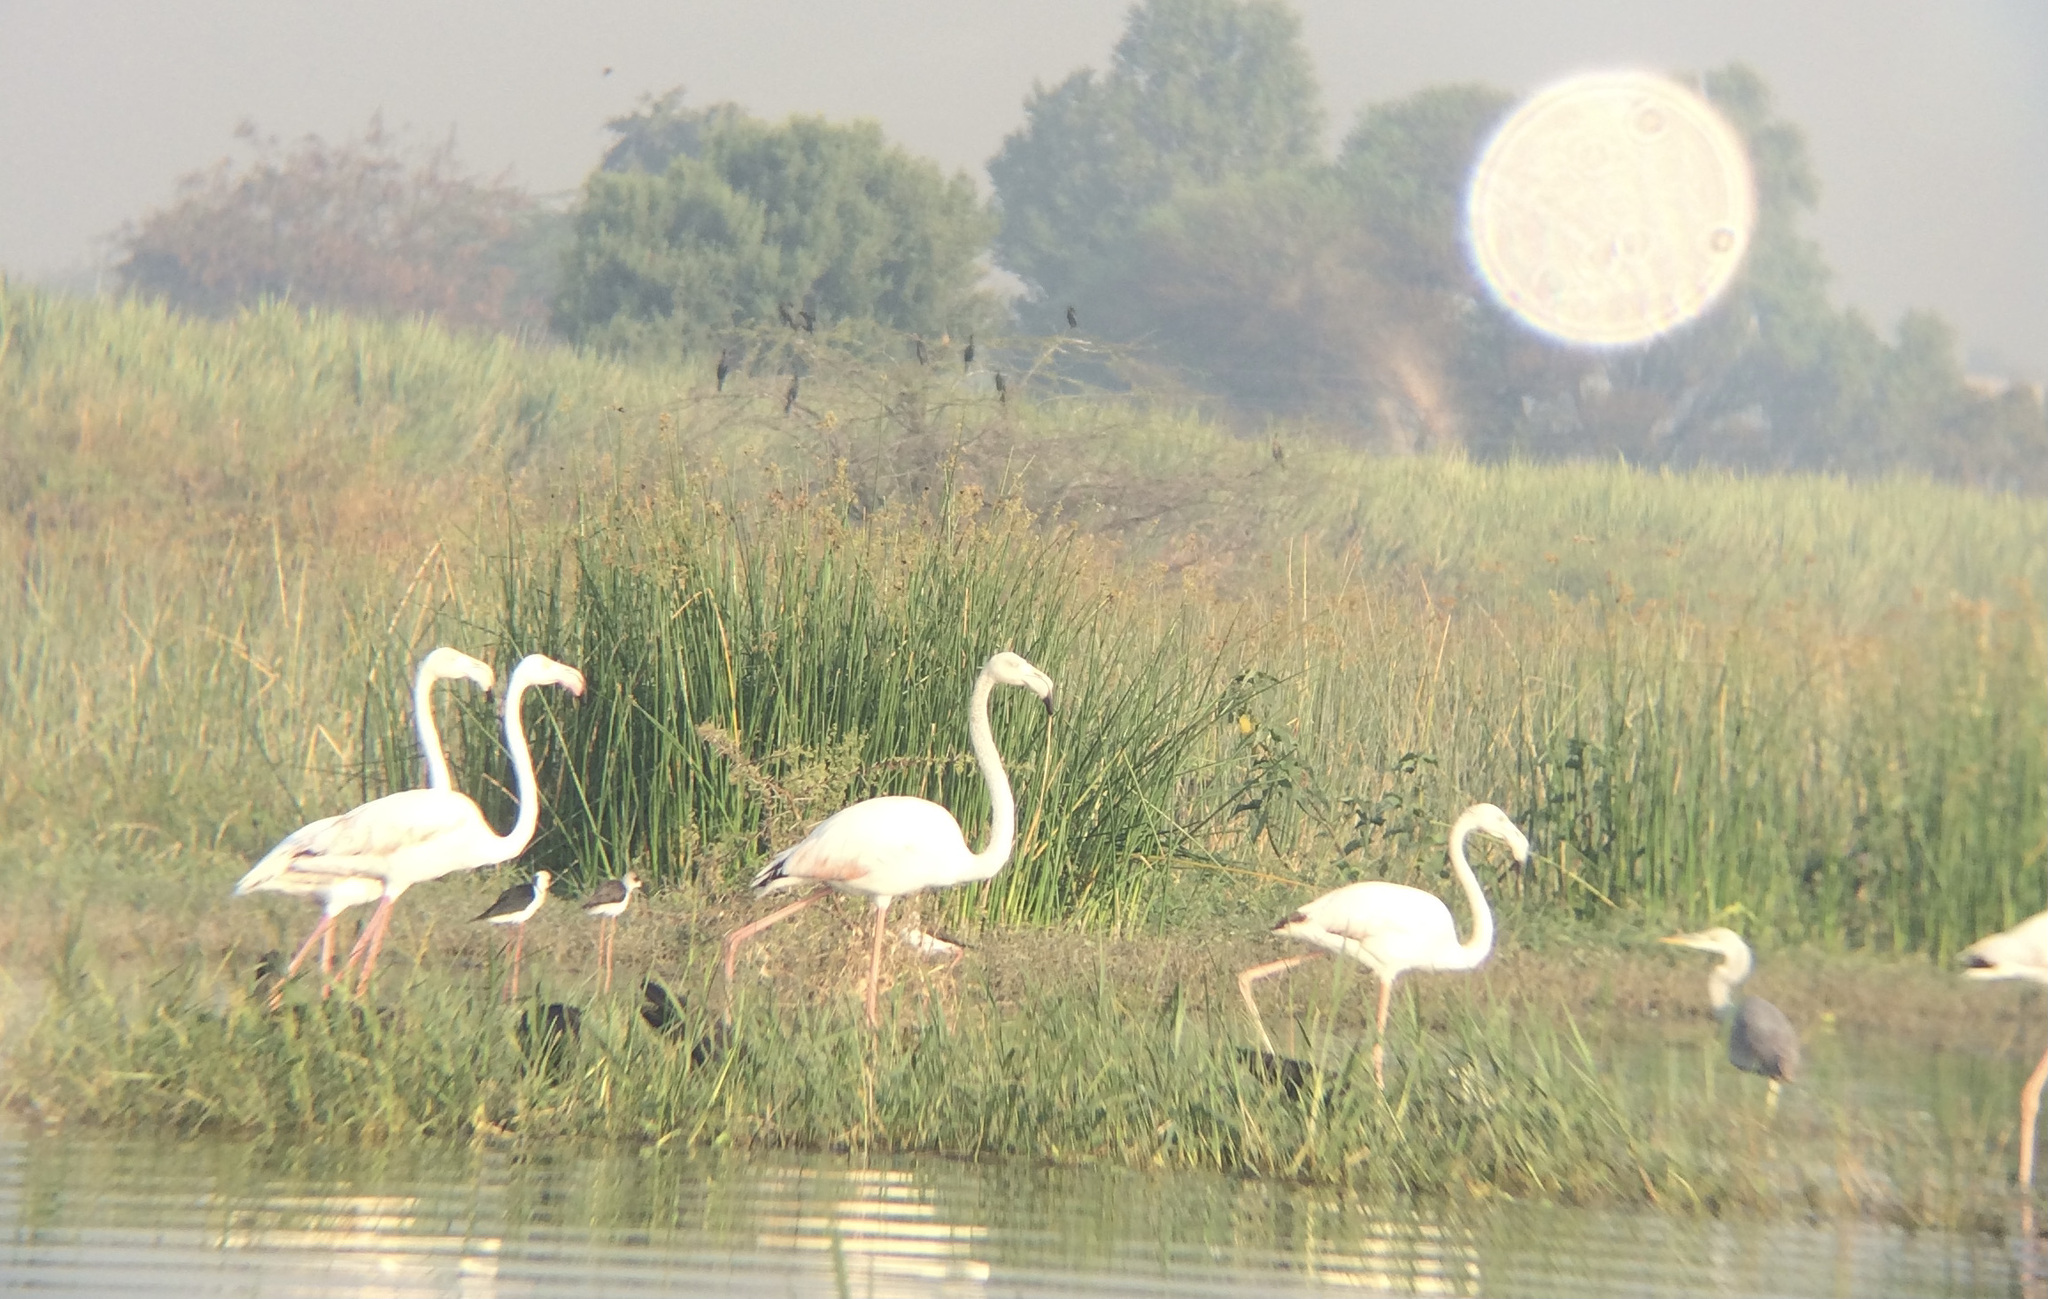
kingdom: Animalia
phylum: Chordata
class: Aves
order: Phoenicopteriformes
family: Phoenicopteridae
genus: Phoenicopterus
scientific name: Phoenicopterus roseus
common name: Greater flamingo
